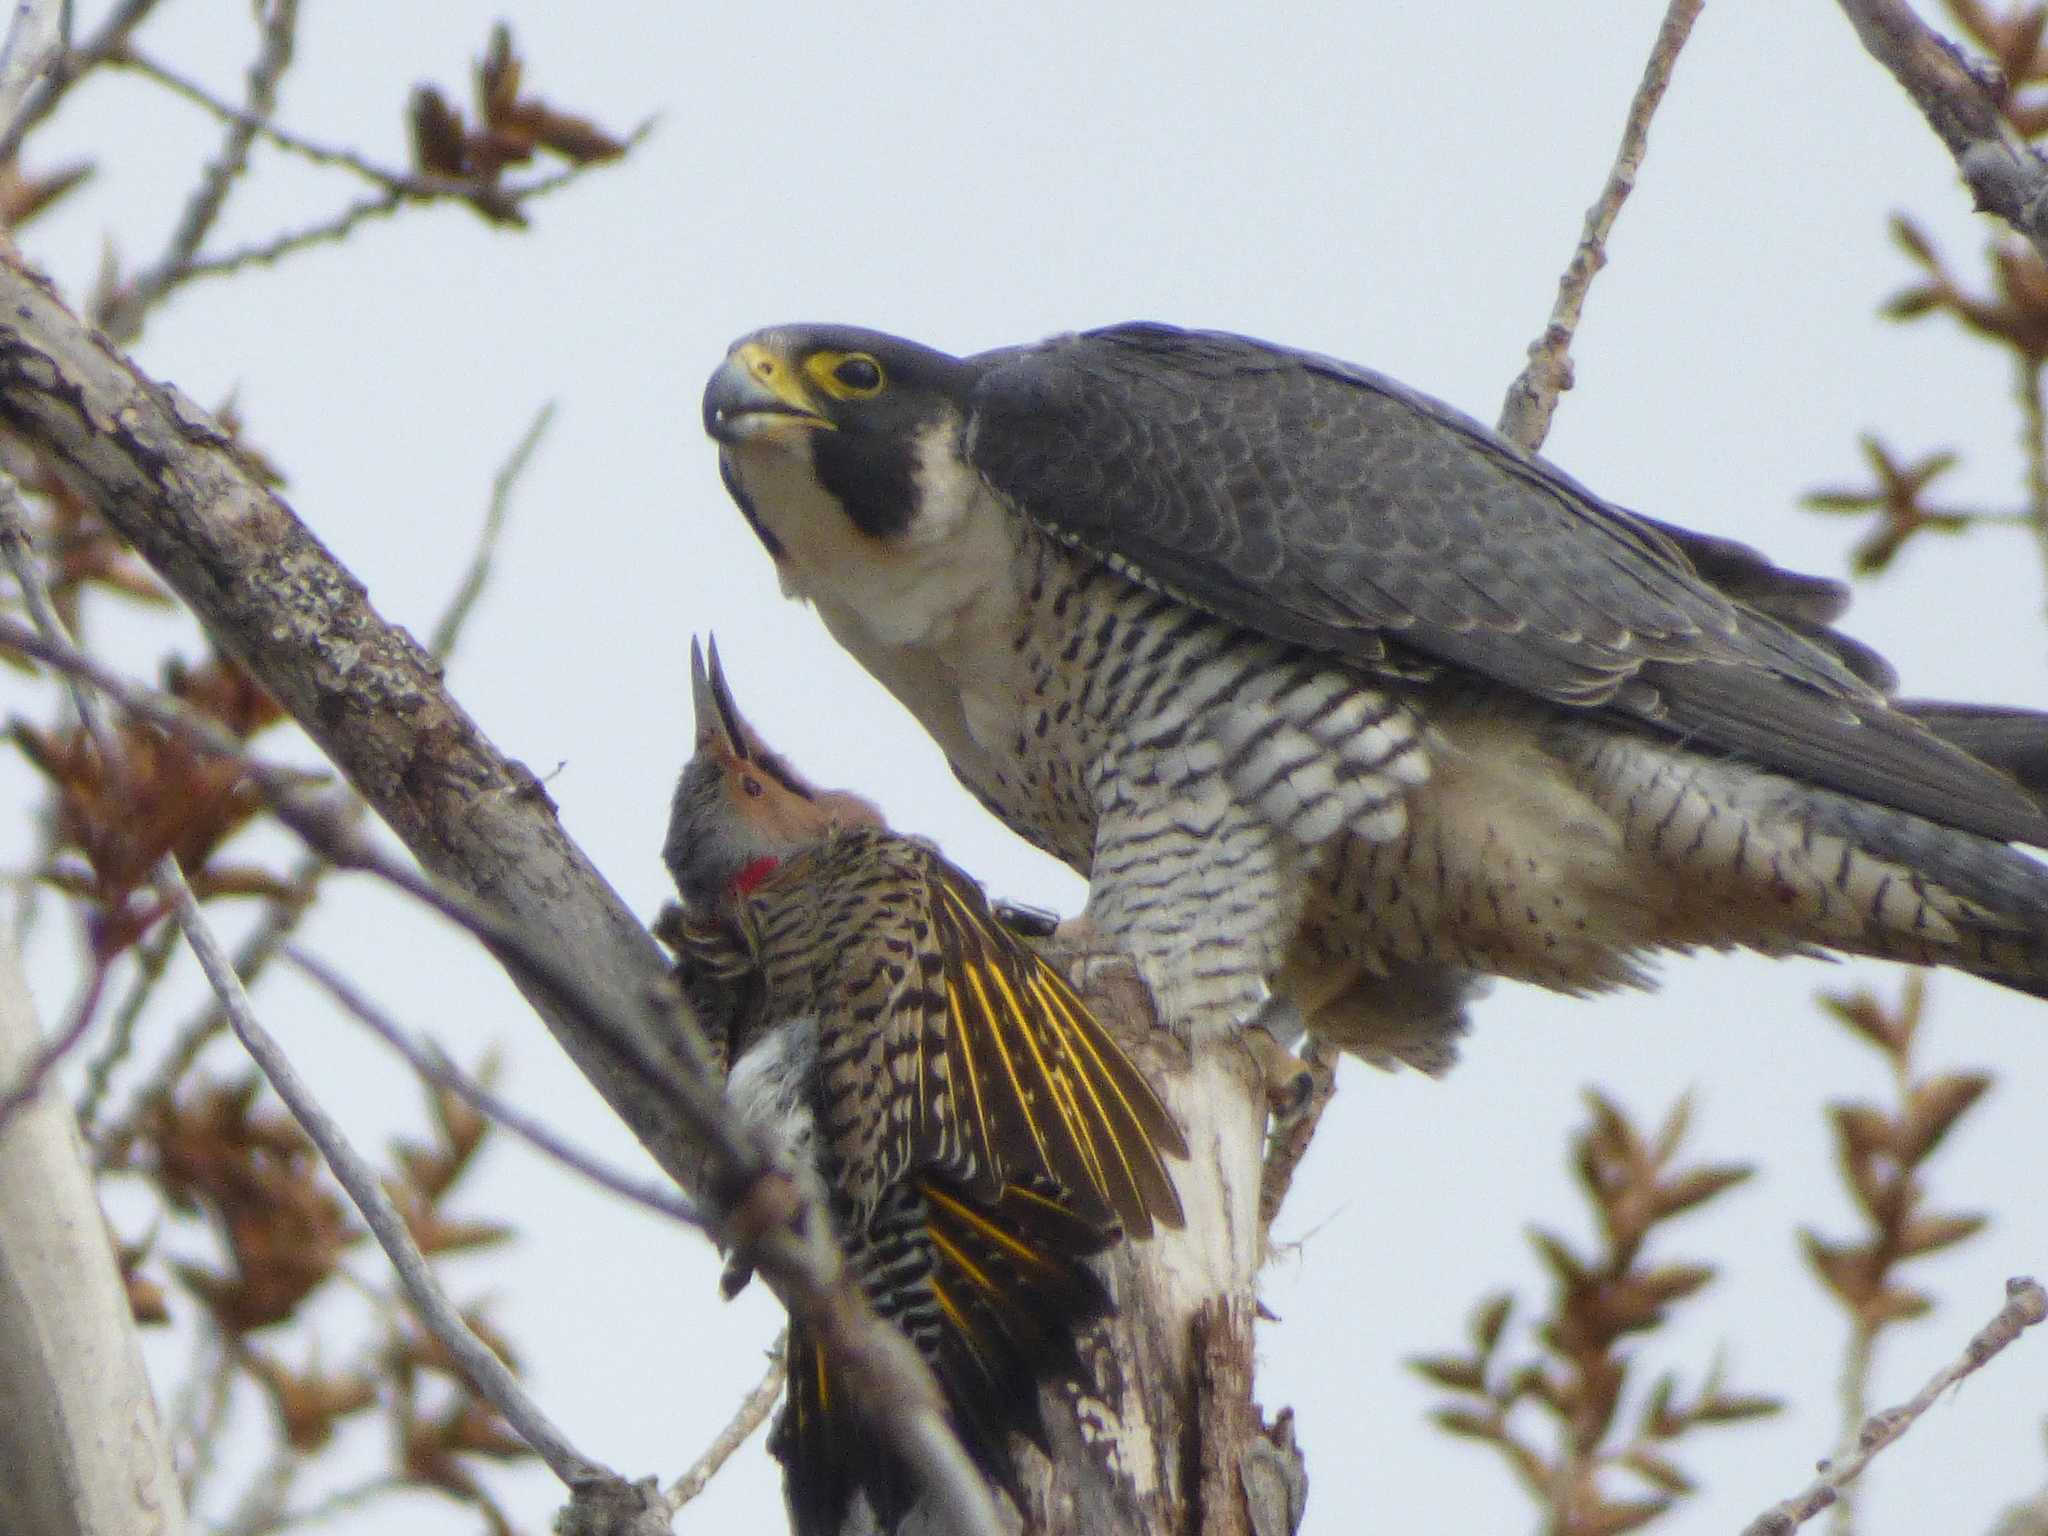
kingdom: Animalia
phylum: Chordata
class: Aves
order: Falconiformes
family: Falconidae
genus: Falco
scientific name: Falco peregrinus
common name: Peregrine falcon
